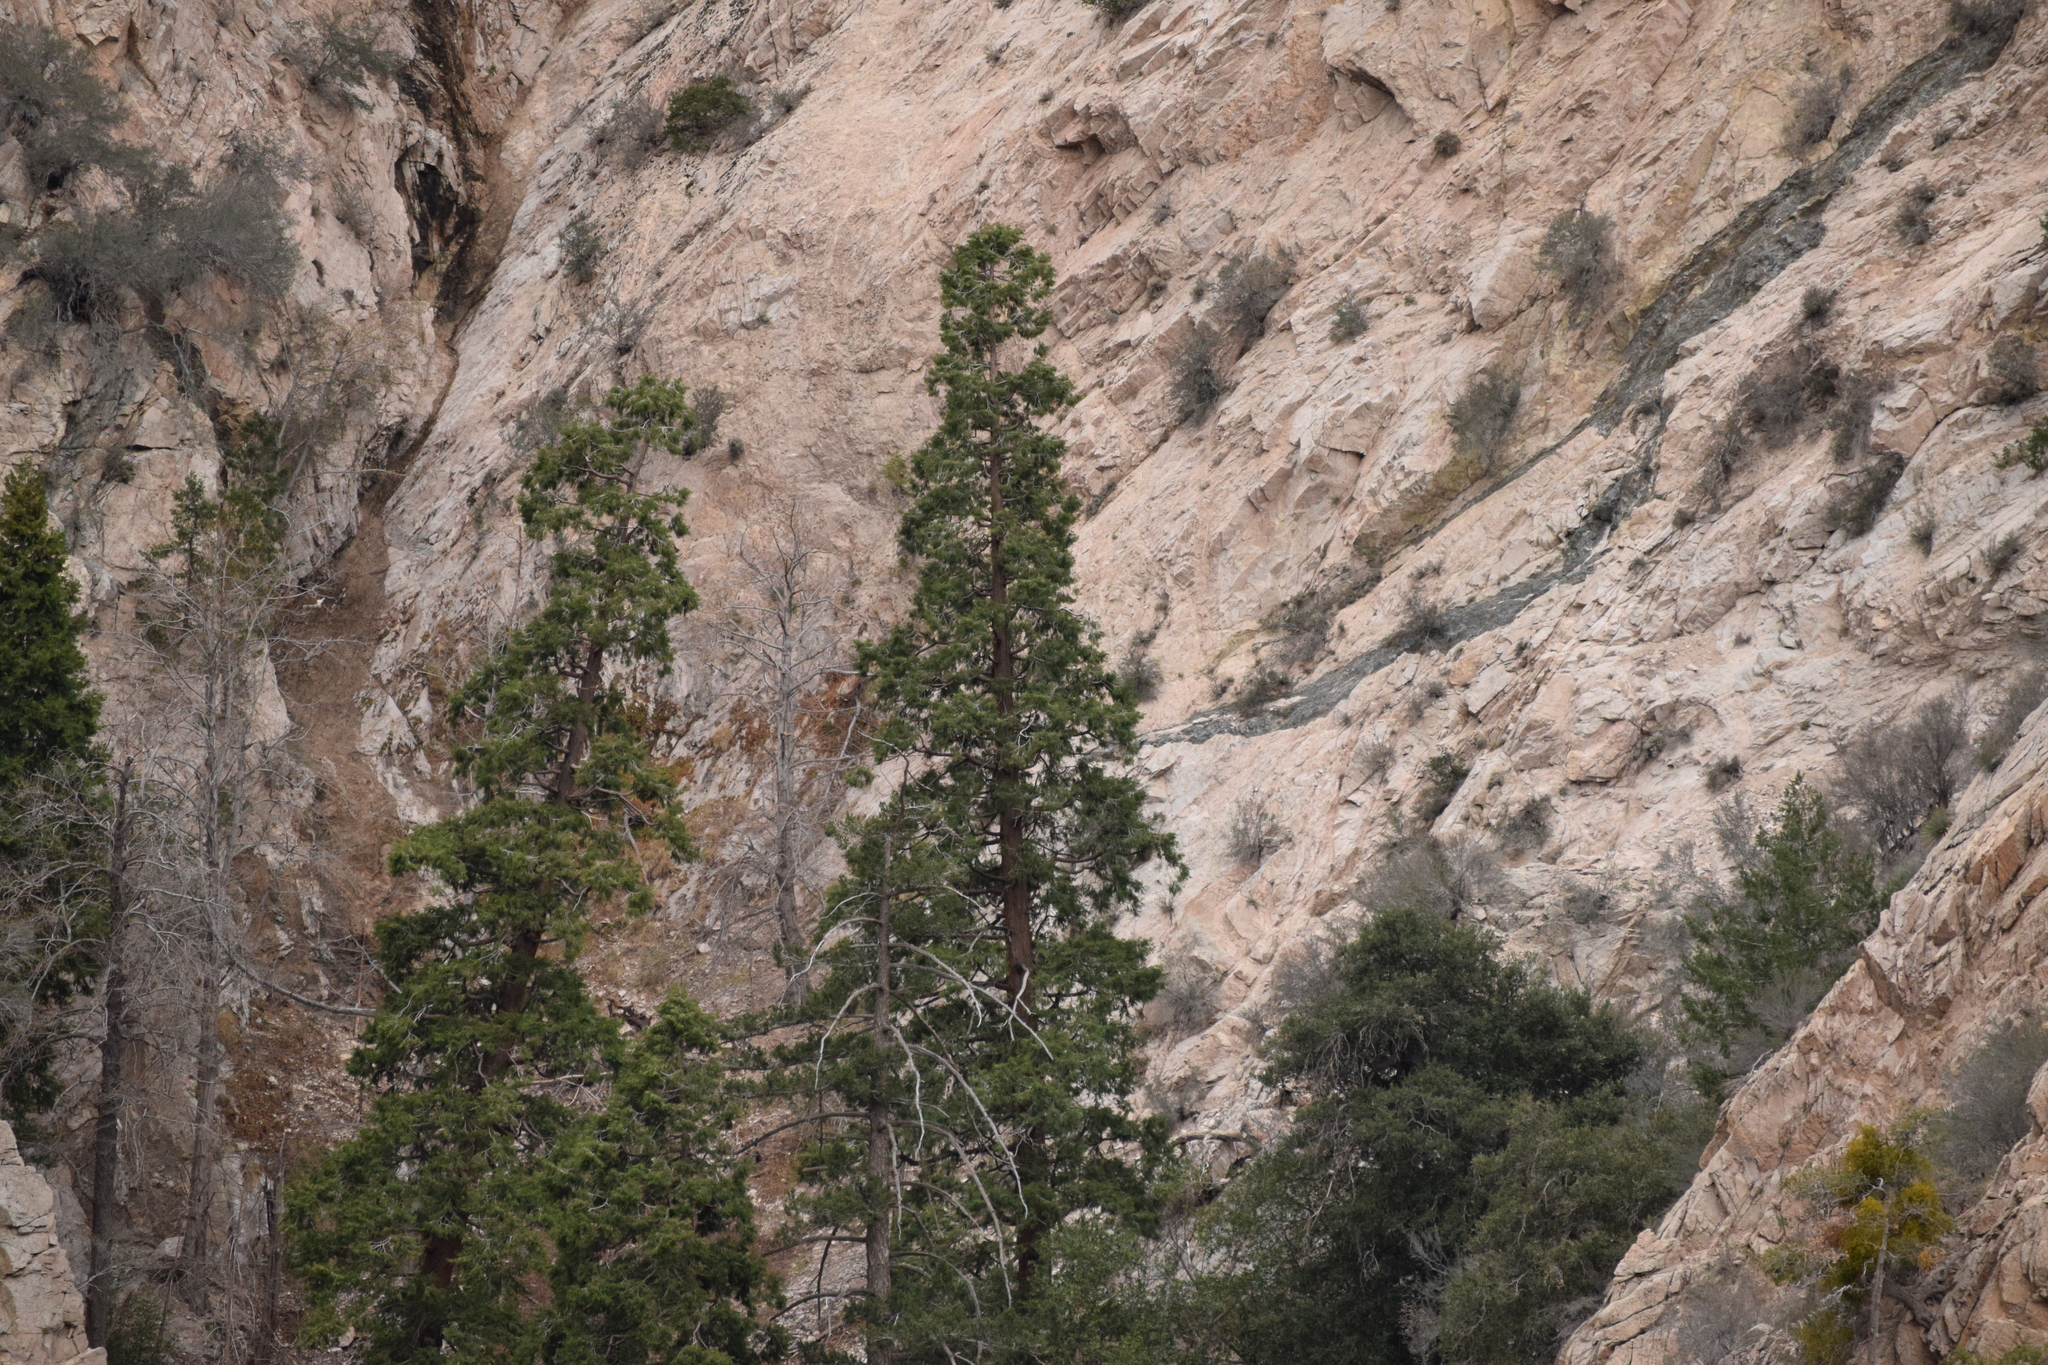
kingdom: Plantae
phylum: Tracheophyta
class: Pinopsida
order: Pinales
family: Cupressaceae
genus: Calocedrus
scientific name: Calocedrus decurrens
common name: Californian incense-cedar
